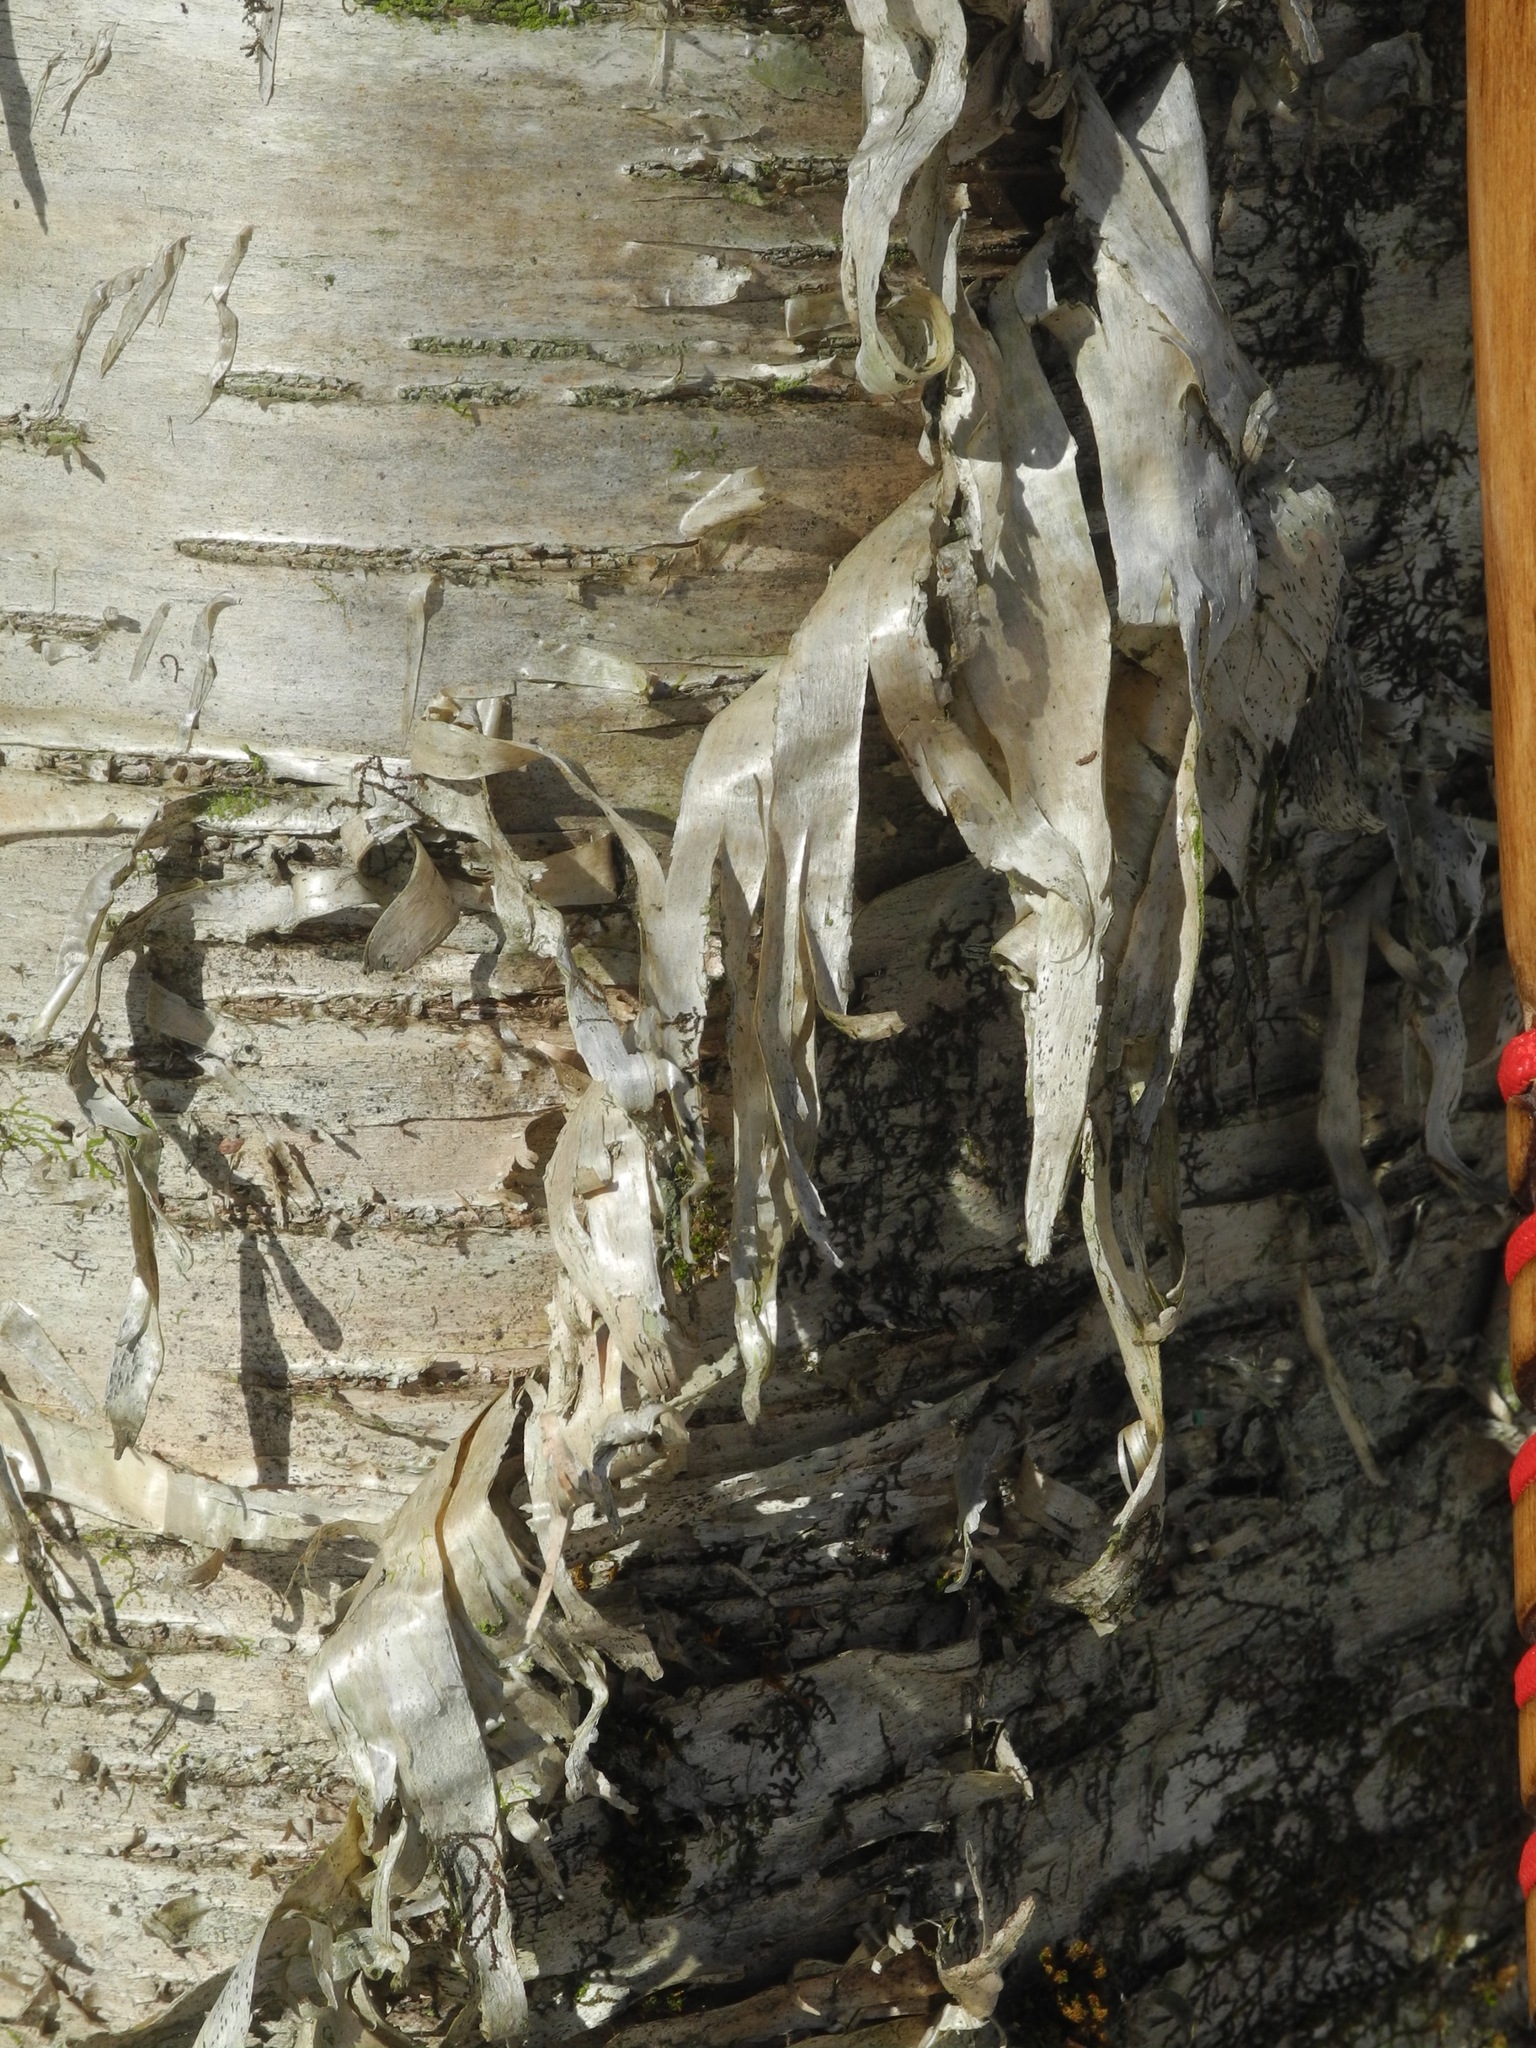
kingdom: Plantae
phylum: Tracheophyta
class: Magnoliopsida
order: Fagales
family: Betulaceae
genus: Betula
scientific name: Betula alleghaniensis
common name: Yellow birch
